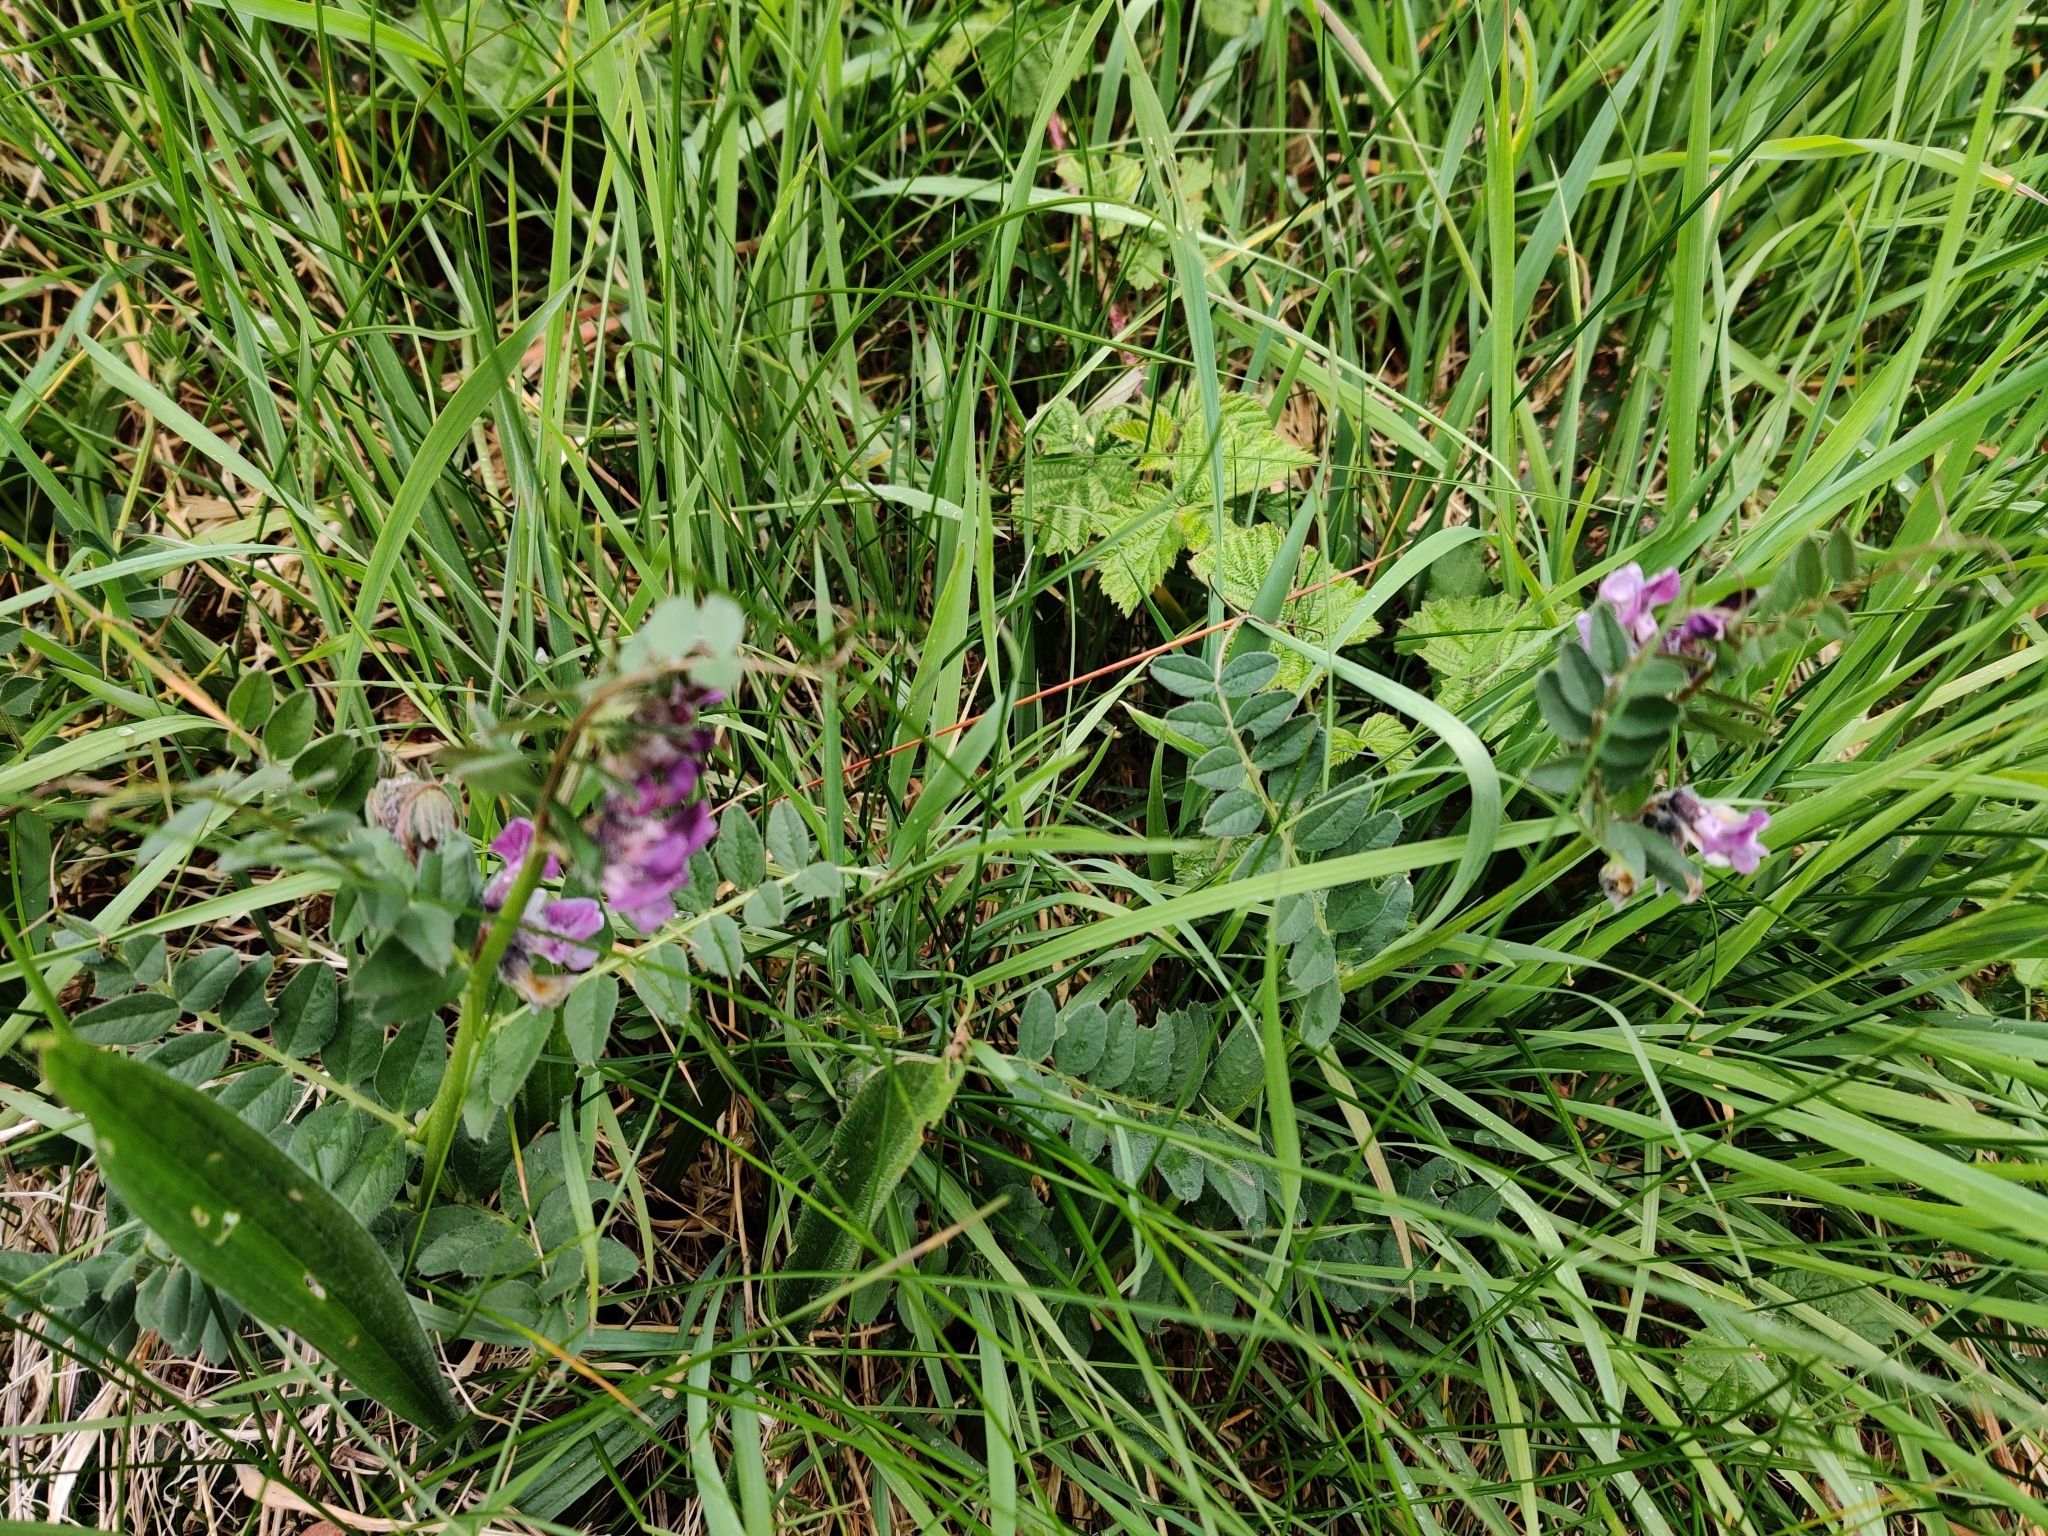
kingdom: Plantae
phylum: Tracheophyta
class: Magnoliopsida
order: Fabales
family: Fabaceae
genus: Vicia
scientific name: Vicia sepium
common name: Bush vetch
